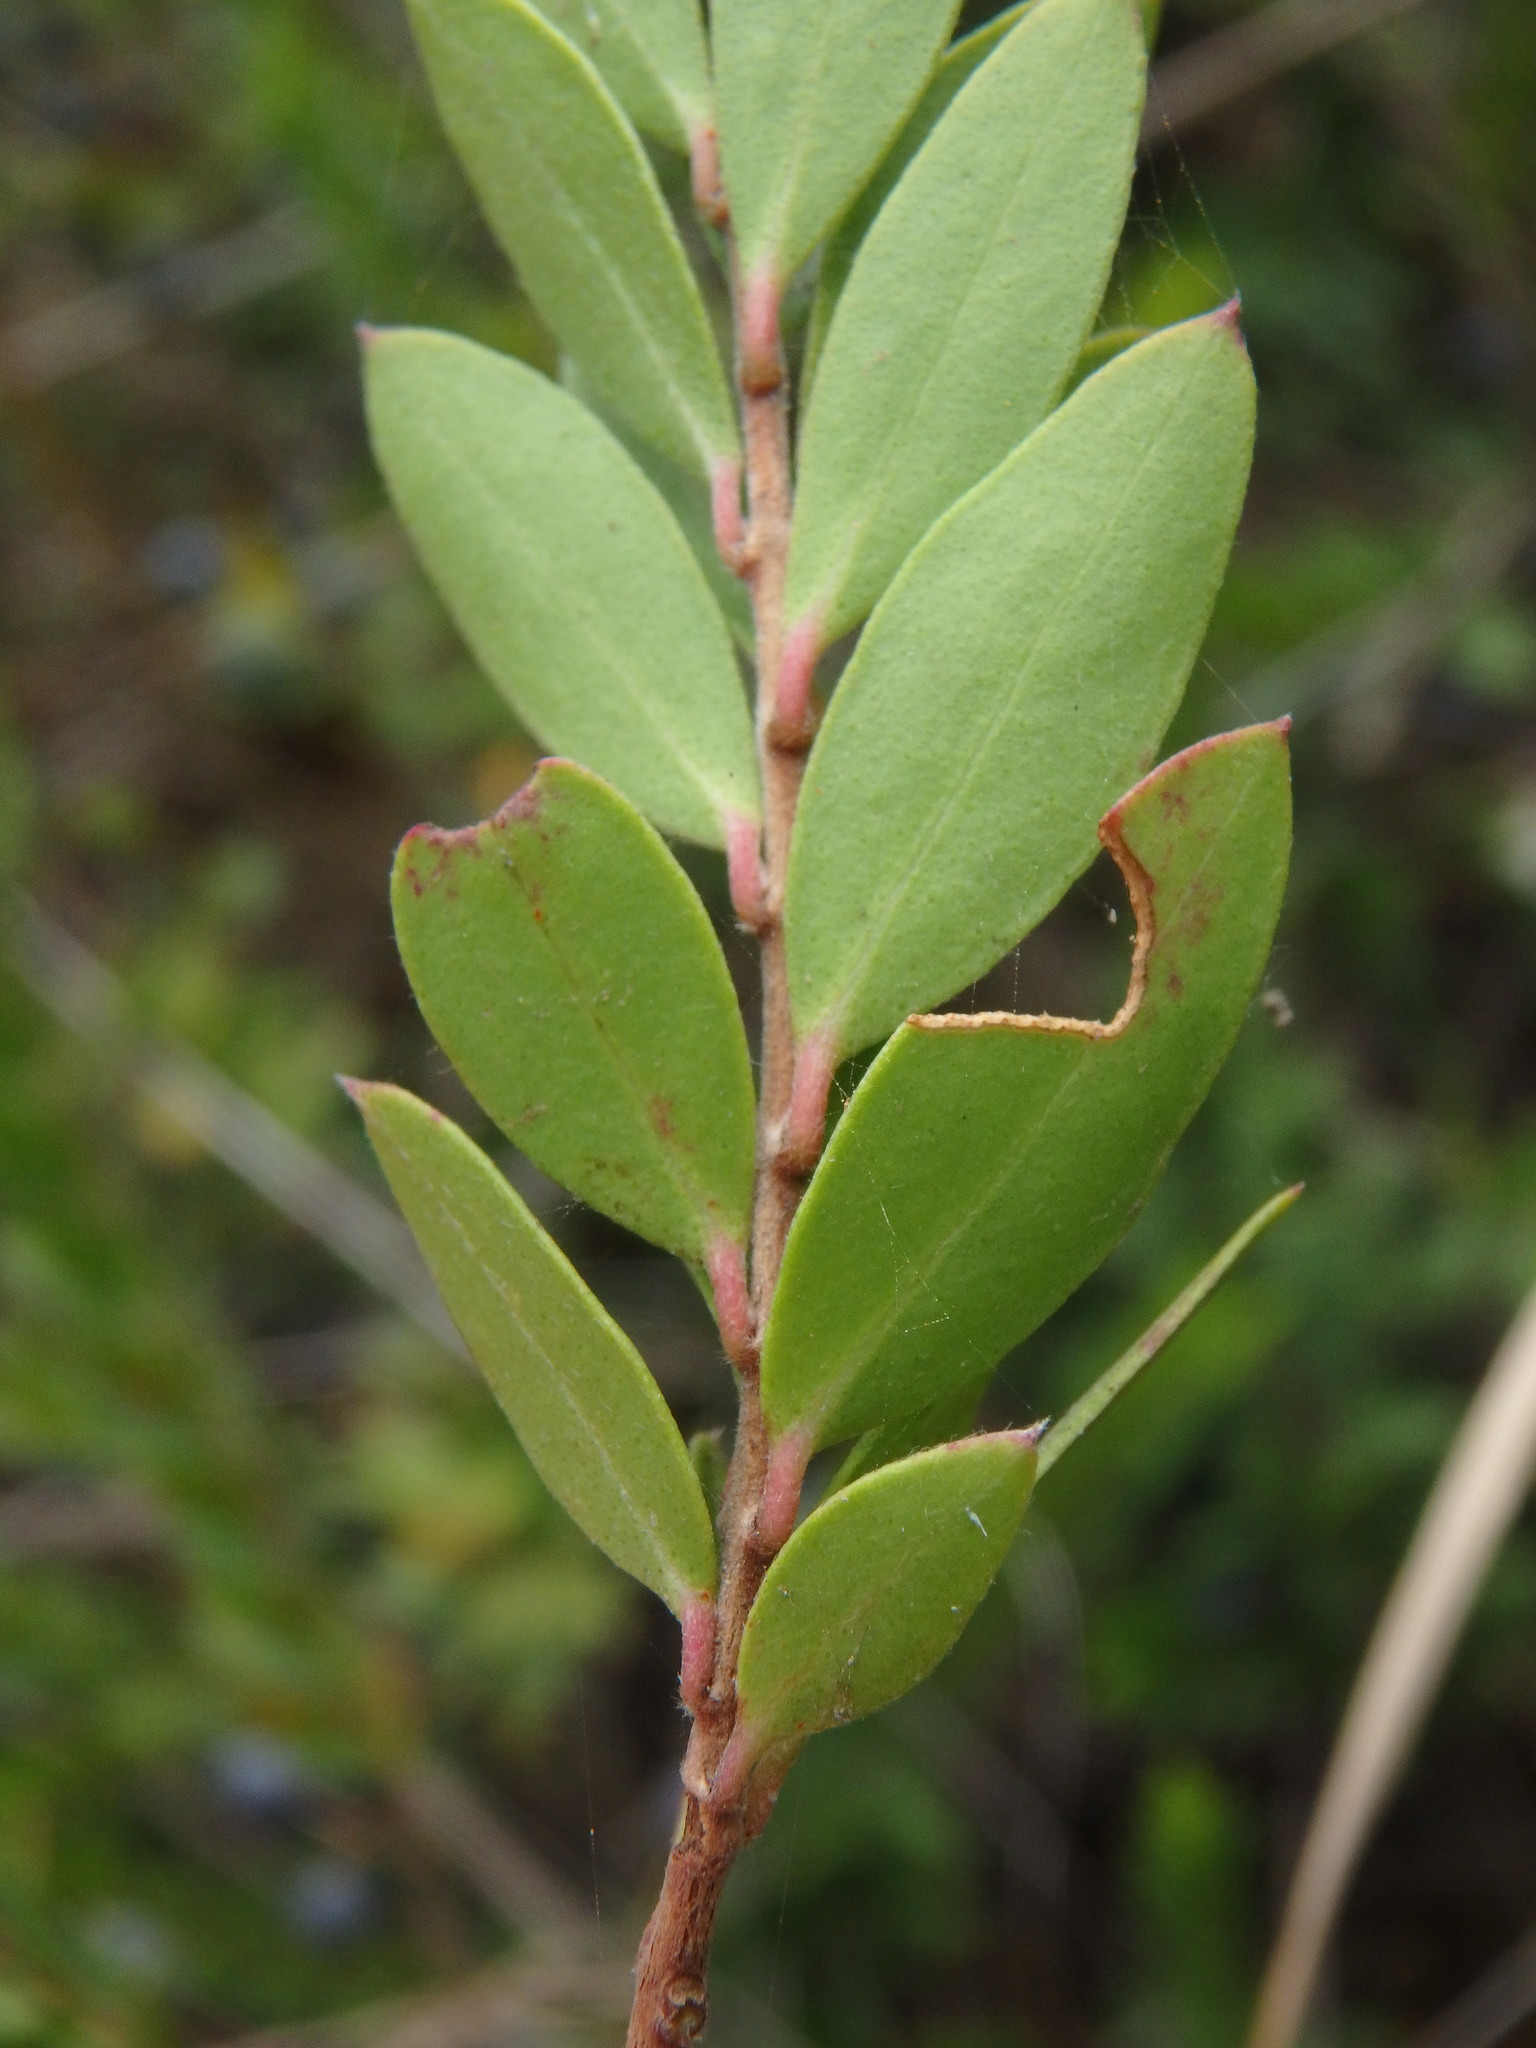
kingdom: Plantae
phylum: Tracheophyta
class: Magnoliopsida
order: Myrtales
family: Myrtaceae
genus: Myrtus
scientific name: Myrtus communis
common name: Myrtle
